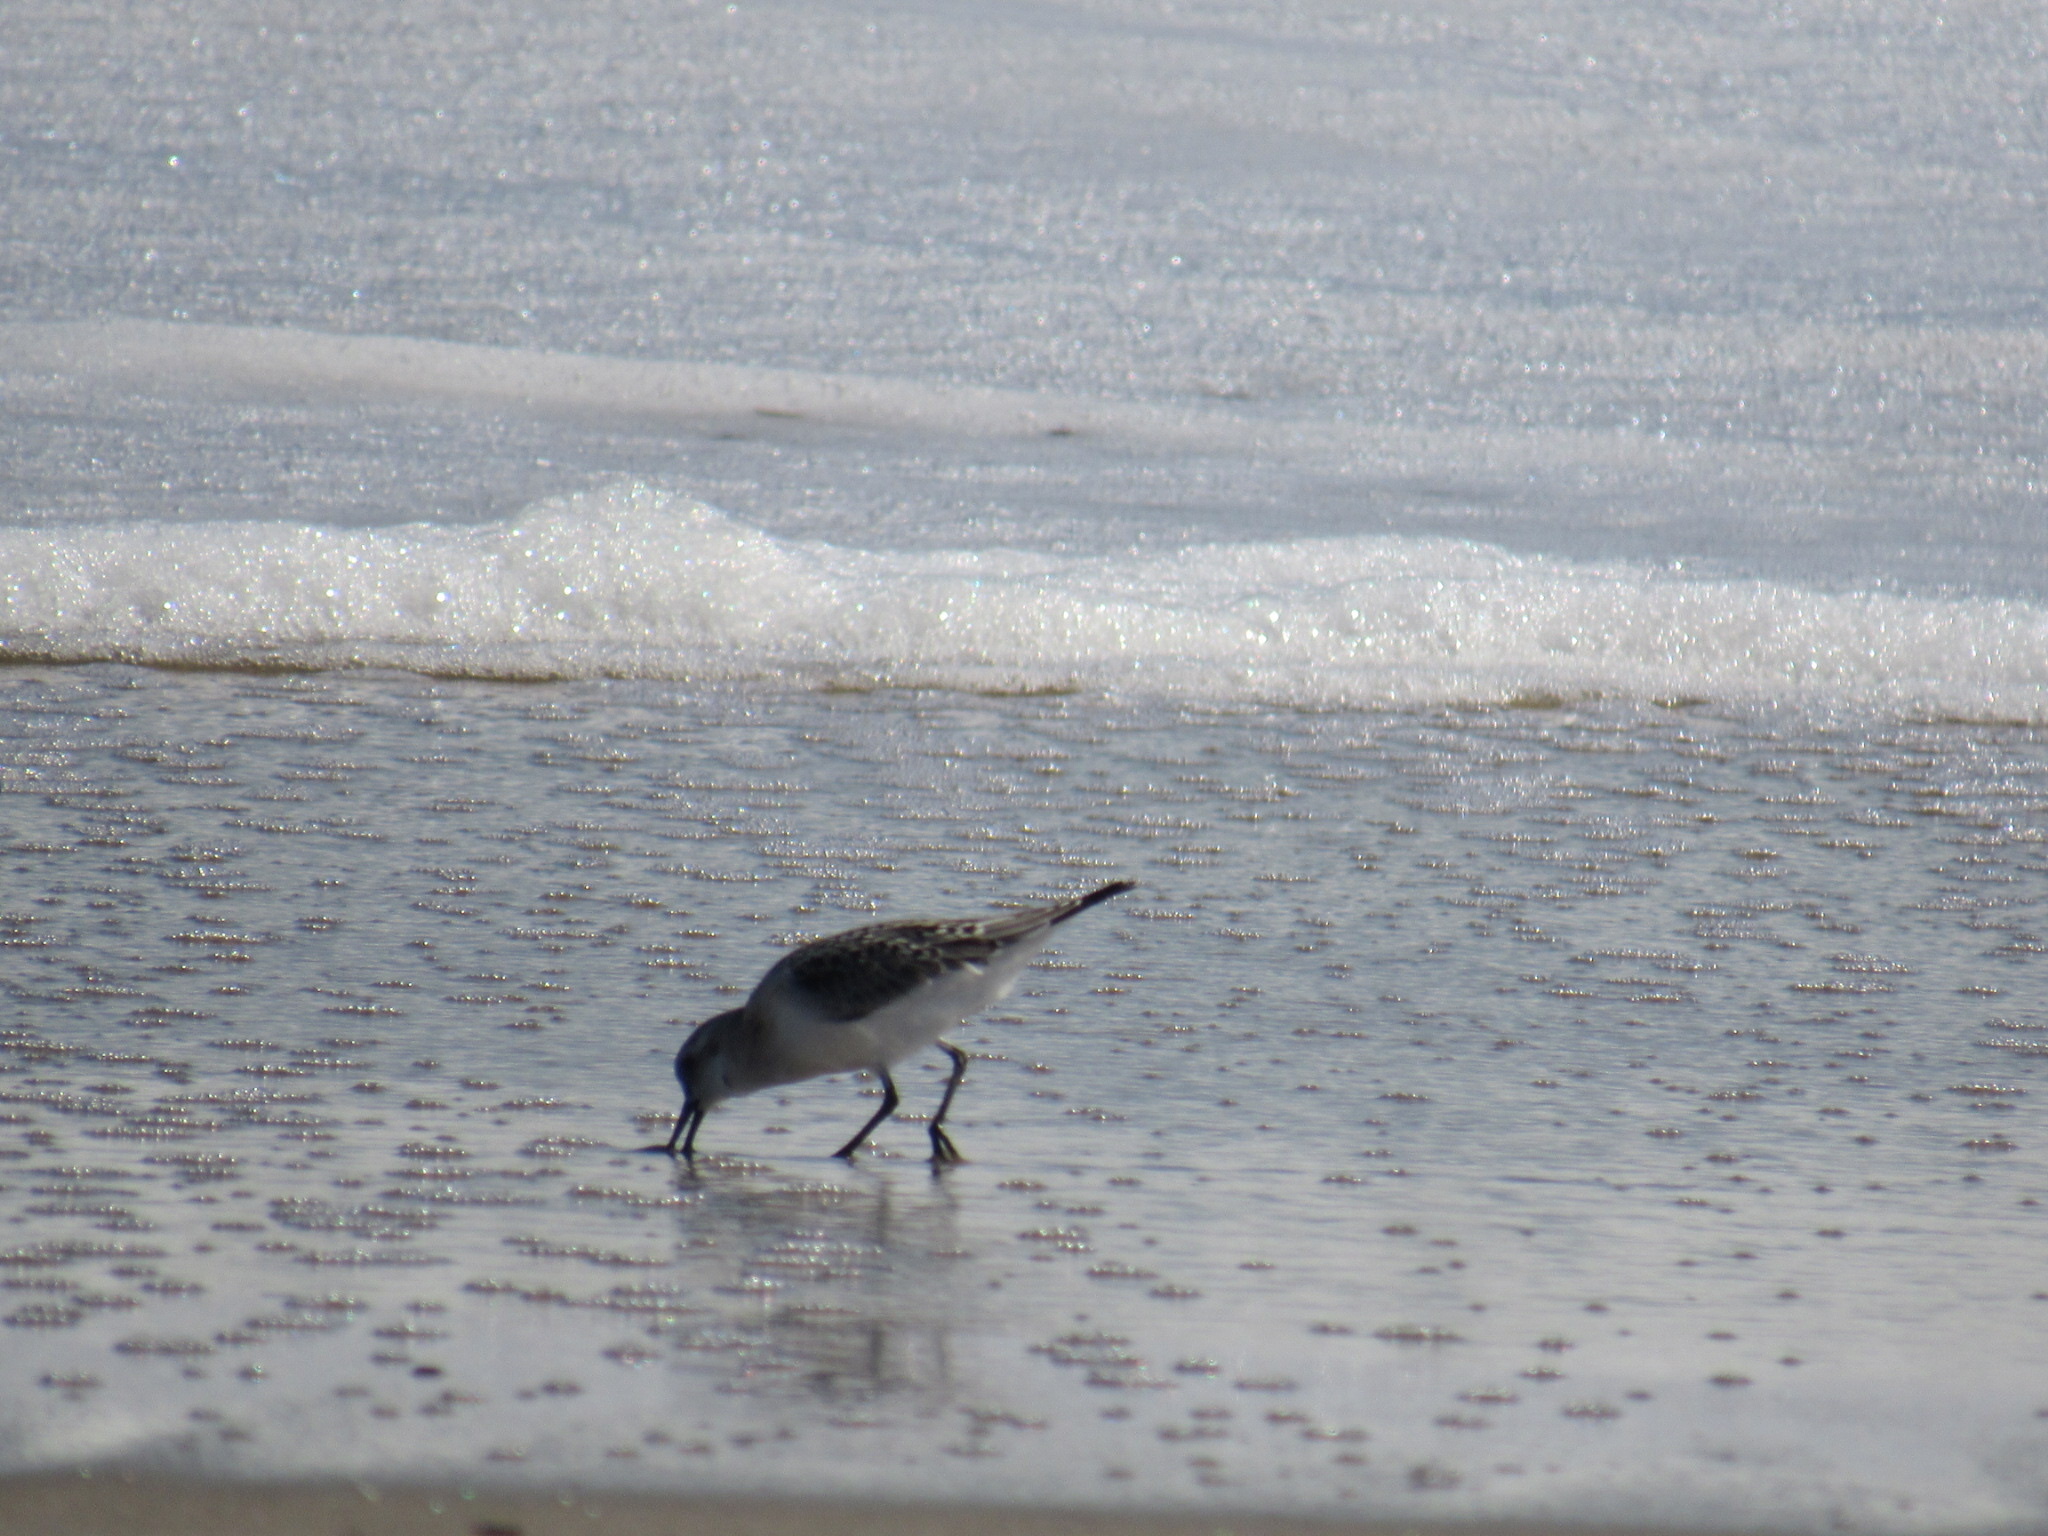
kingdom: Animalia
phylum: Chordata
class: Aves
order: Charadriiformes
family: Scolopacidae
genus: Calidris
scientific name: Calidris alba
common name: Sanderling
